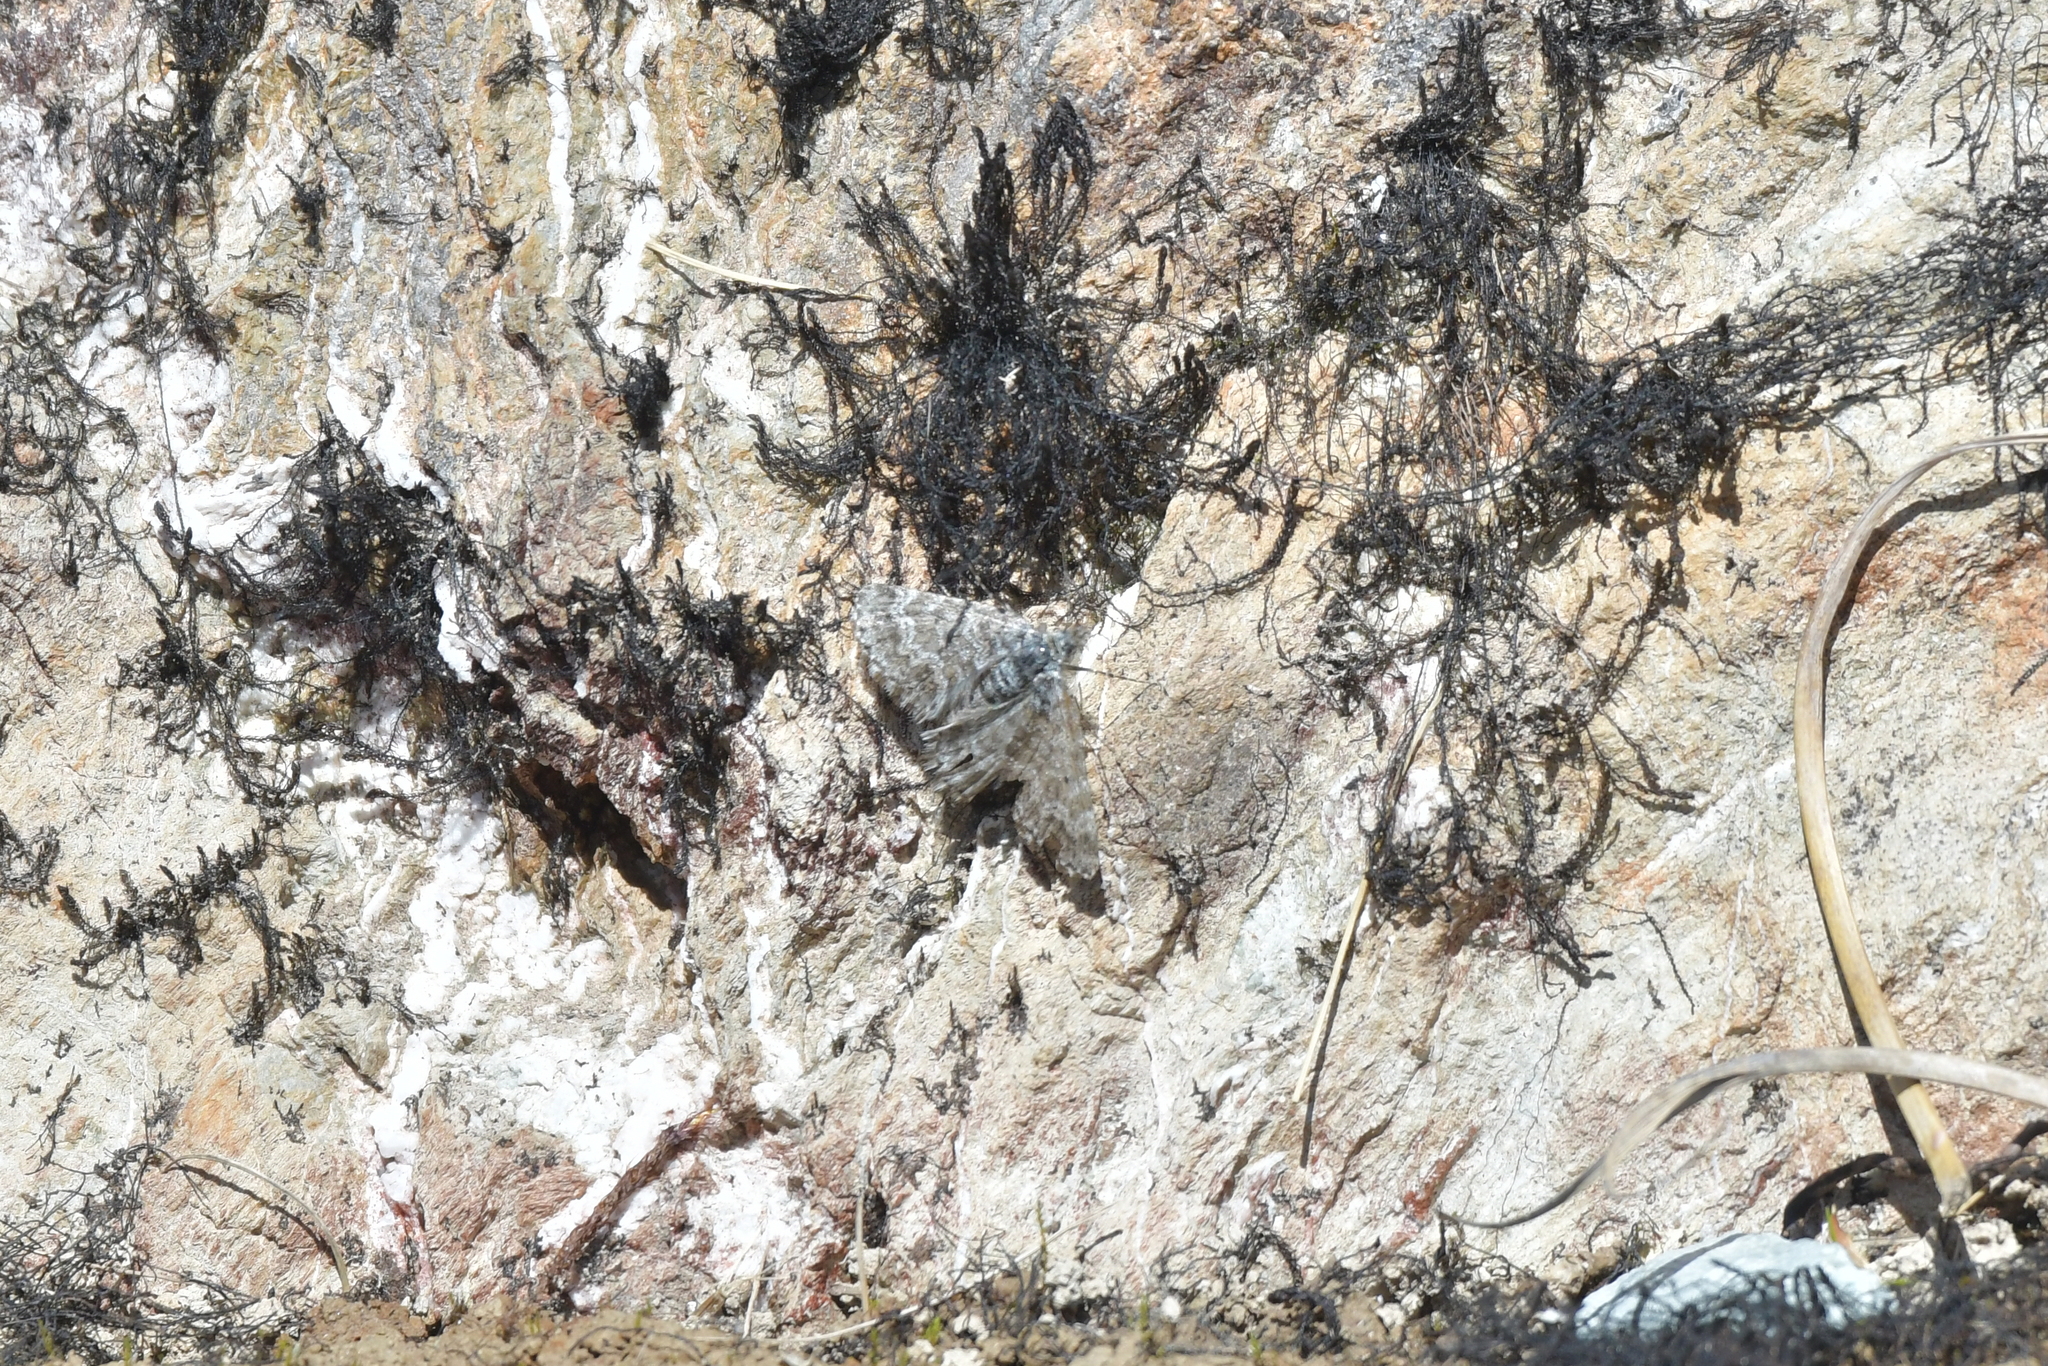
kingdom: Animalia
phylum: Arthropoda
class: Insecta
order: Lepidoptera
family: Geometridae
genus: Aponotoreas
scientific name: Aponotoreas anthracias
